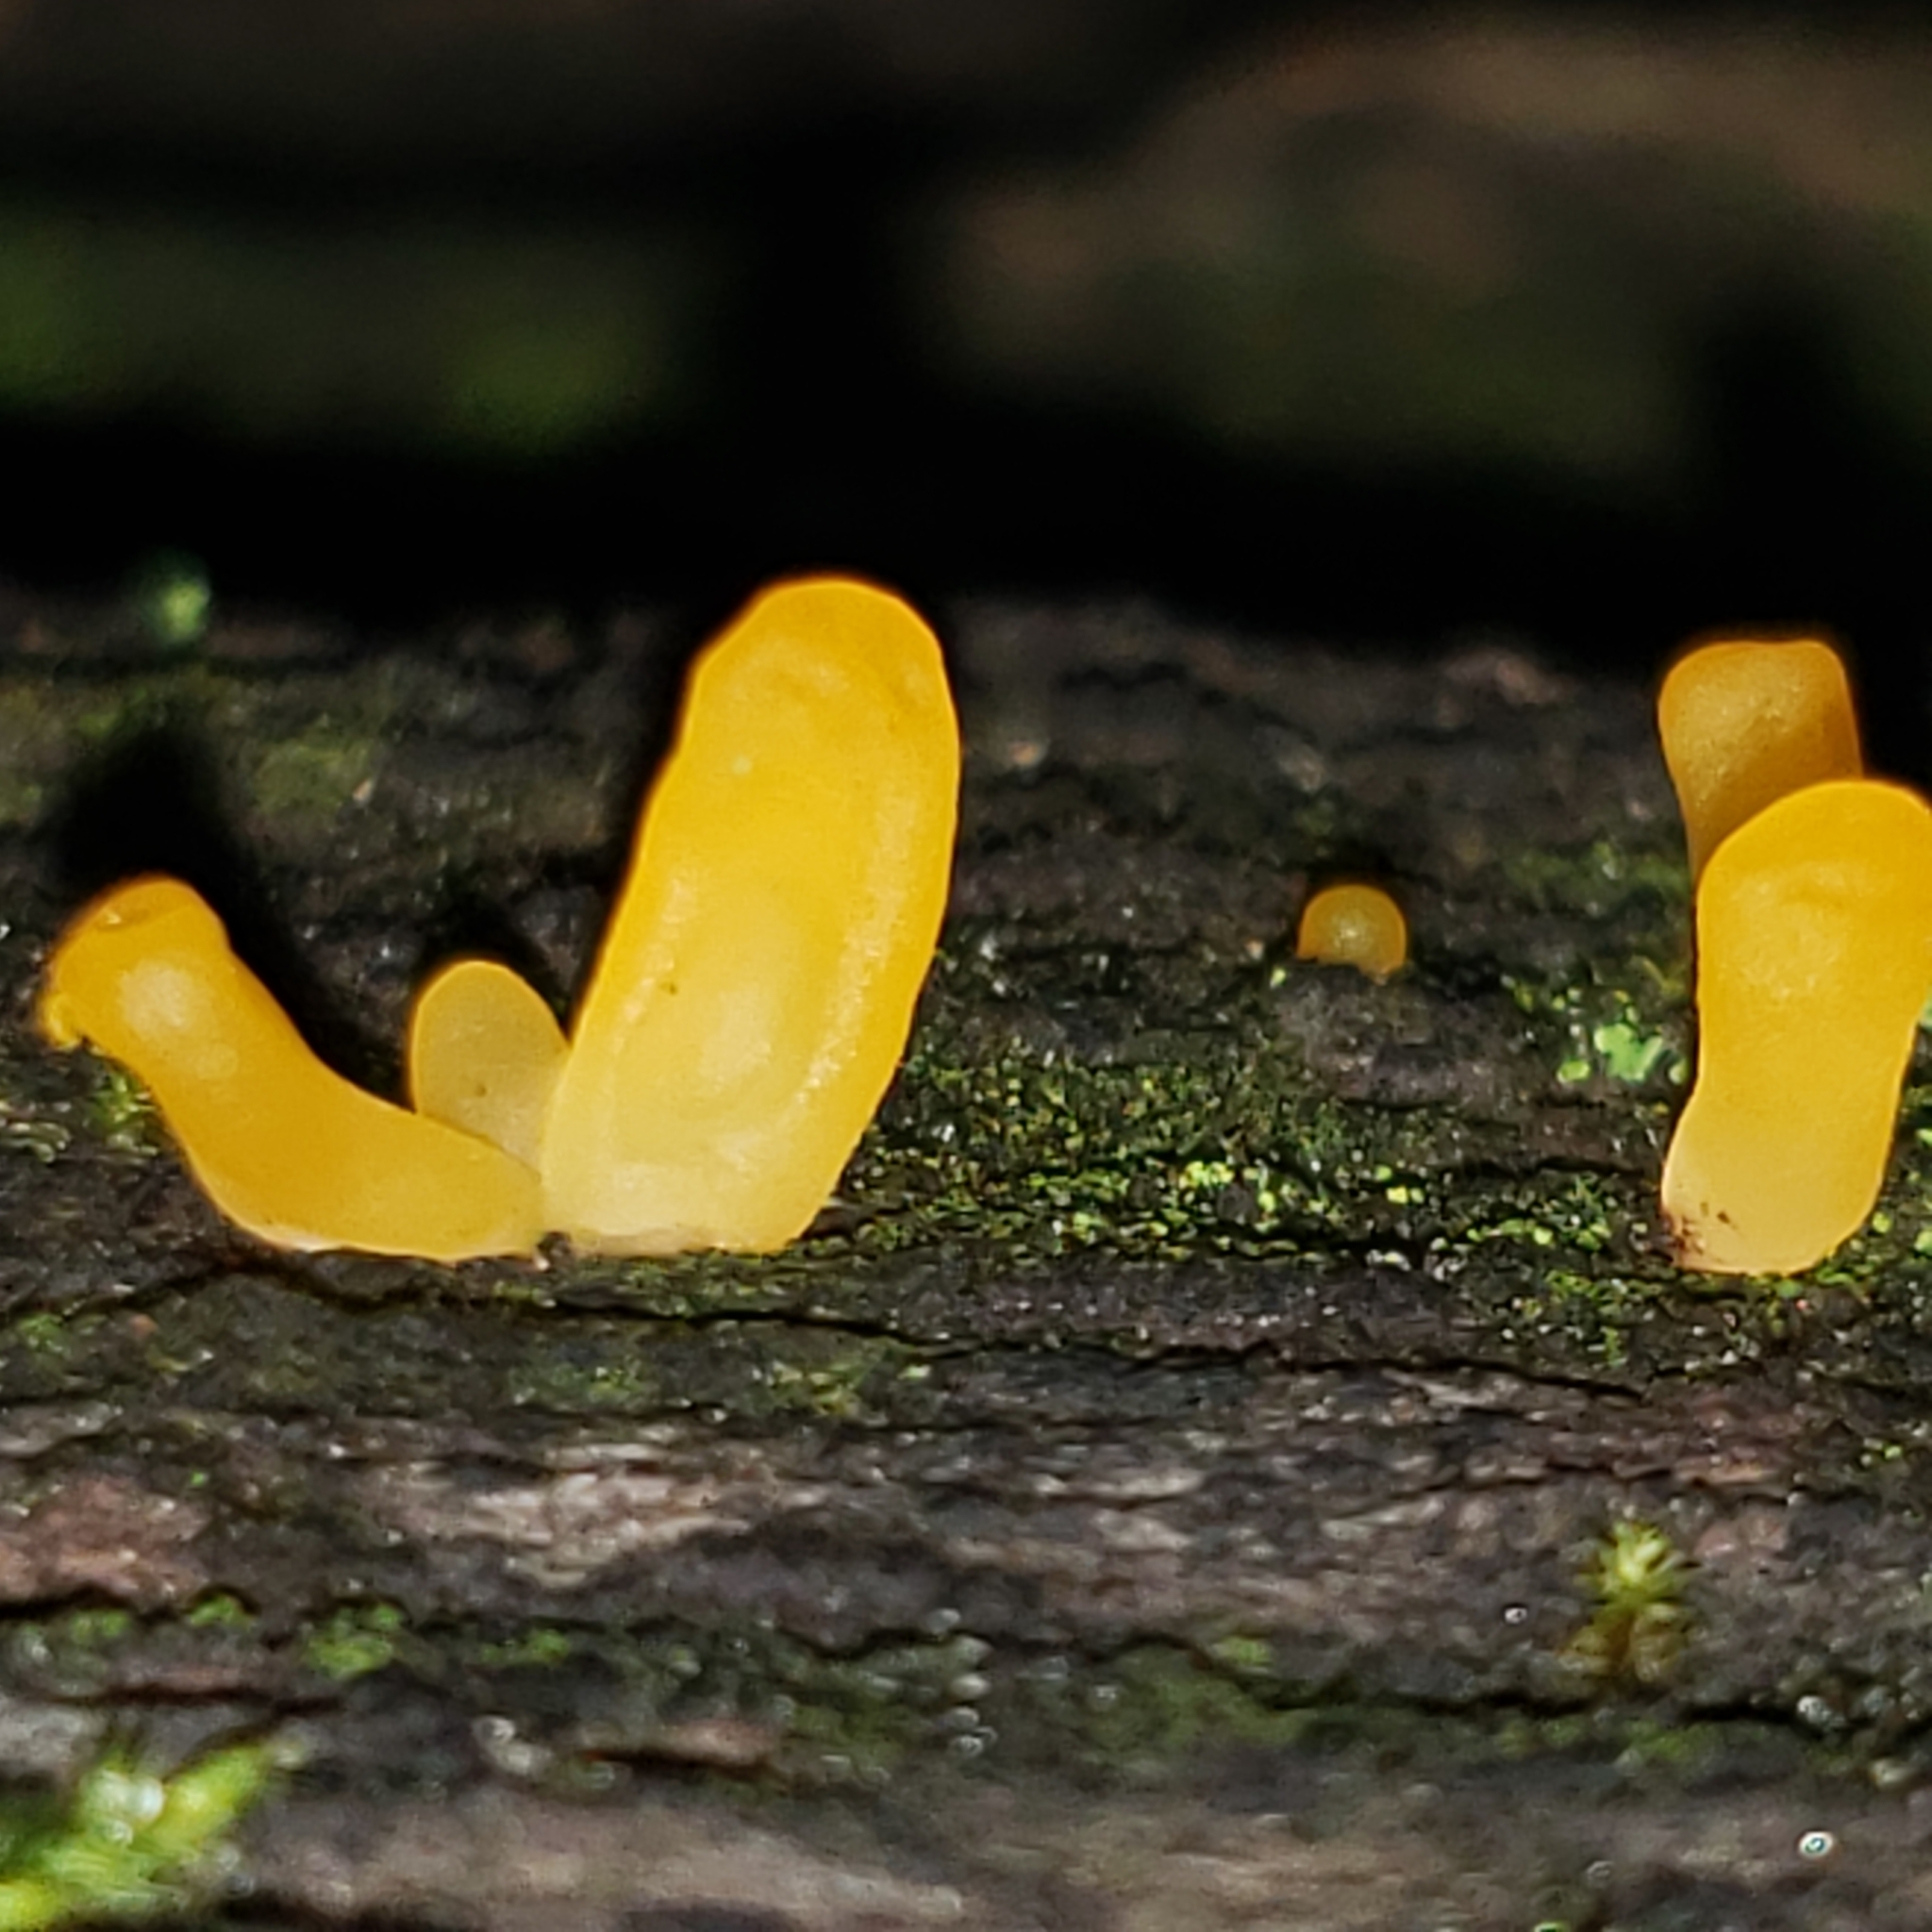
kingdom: Fungi
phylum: Basidiomycota
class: Dacrymycetes
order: Dacrymycetales
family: Dacrymycetaceae
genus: Dacrymyces
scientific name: Dacrymyces spathularius
